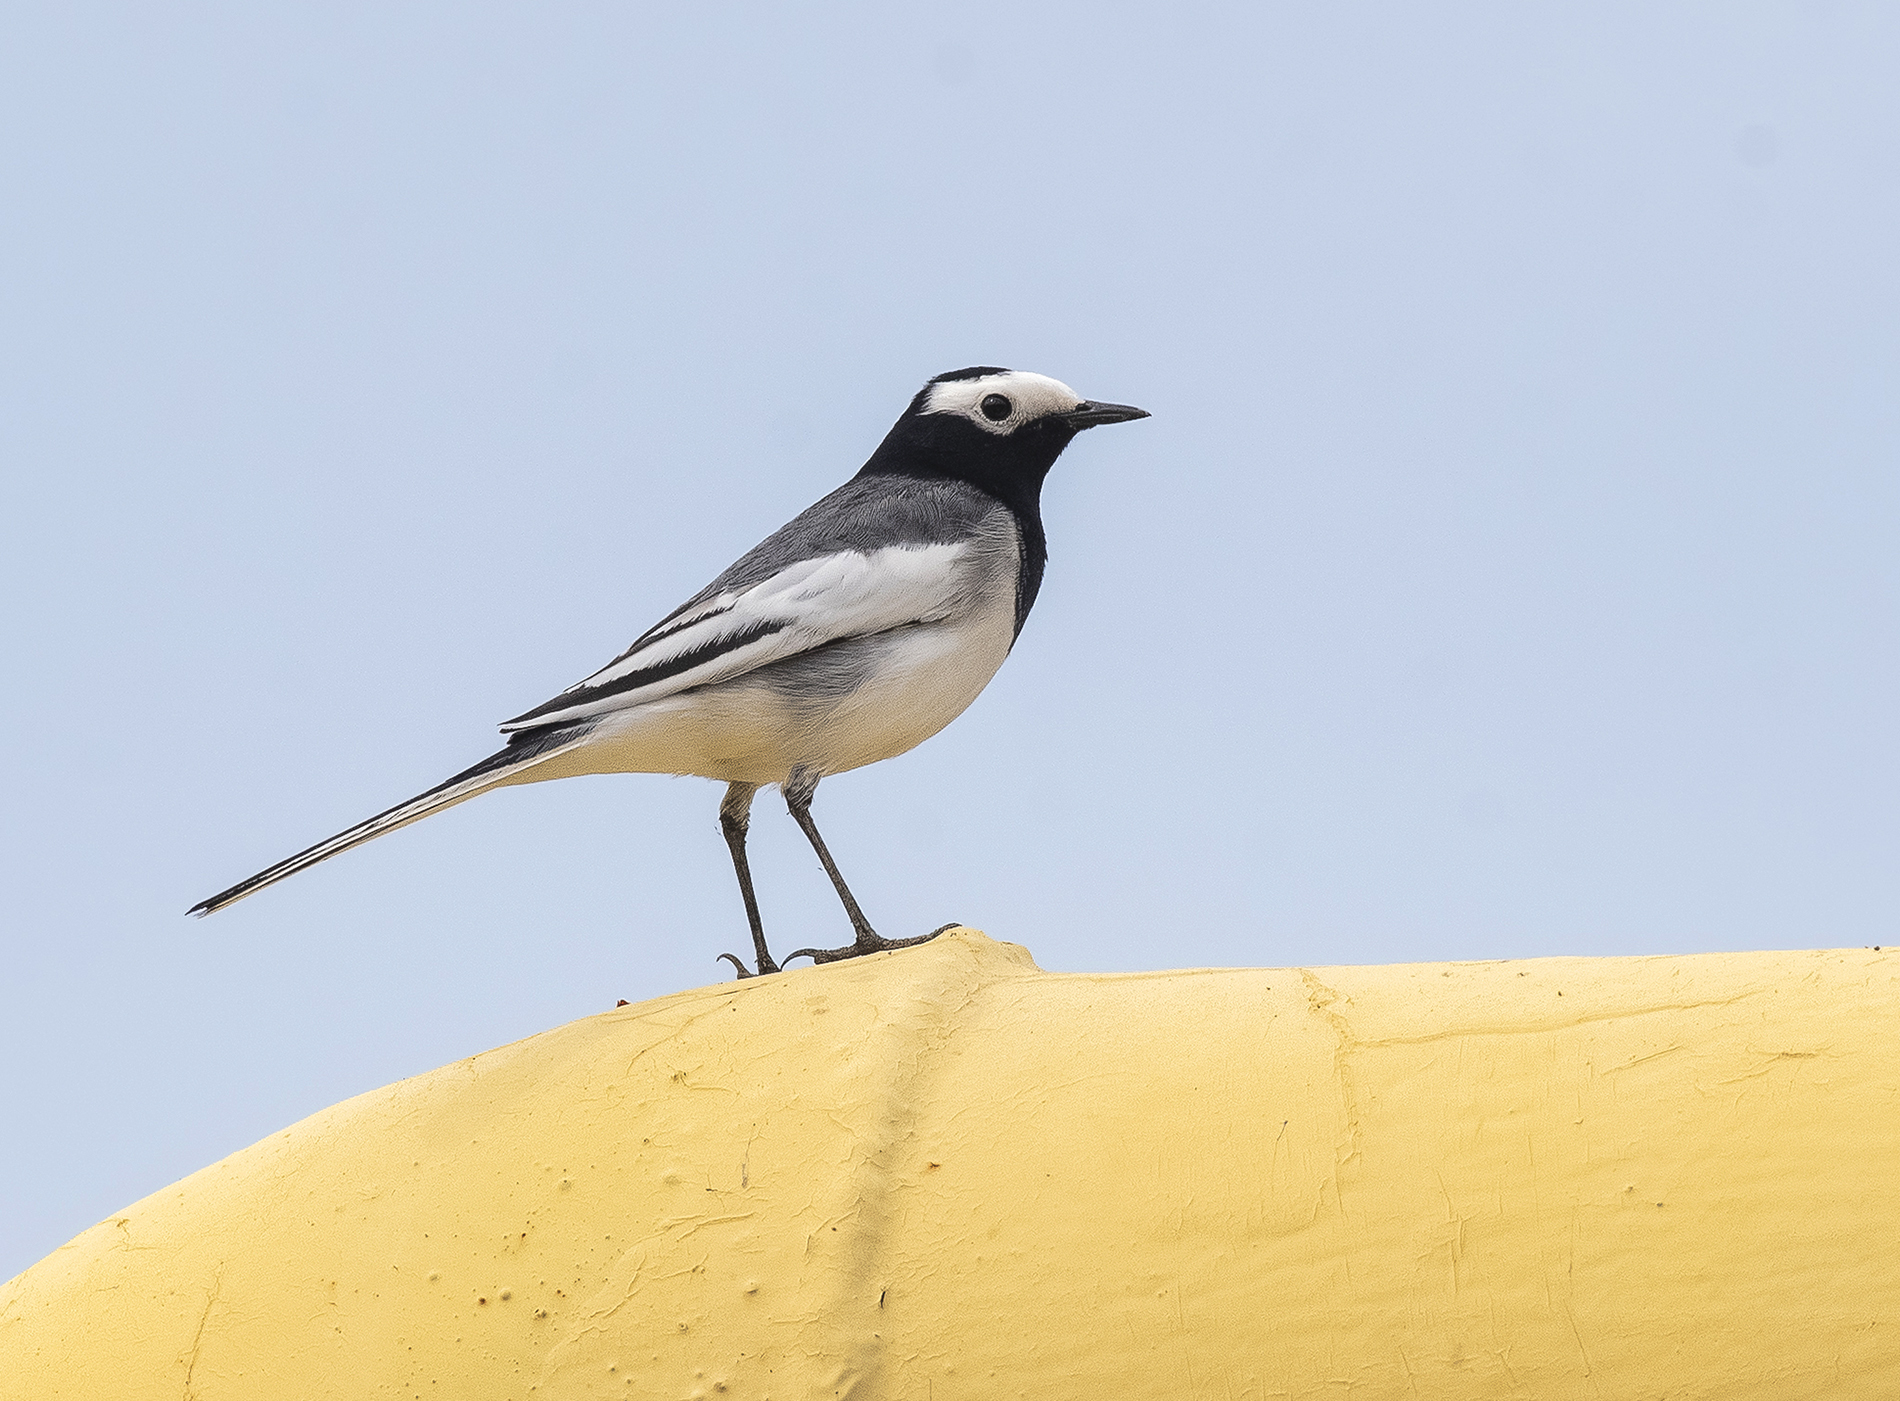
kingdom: Animalia
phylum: Chordata
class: Aves
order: Passeriformes
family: Motacillidae
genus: Motacilla
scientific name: Motacilla alba
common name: White wagtail
